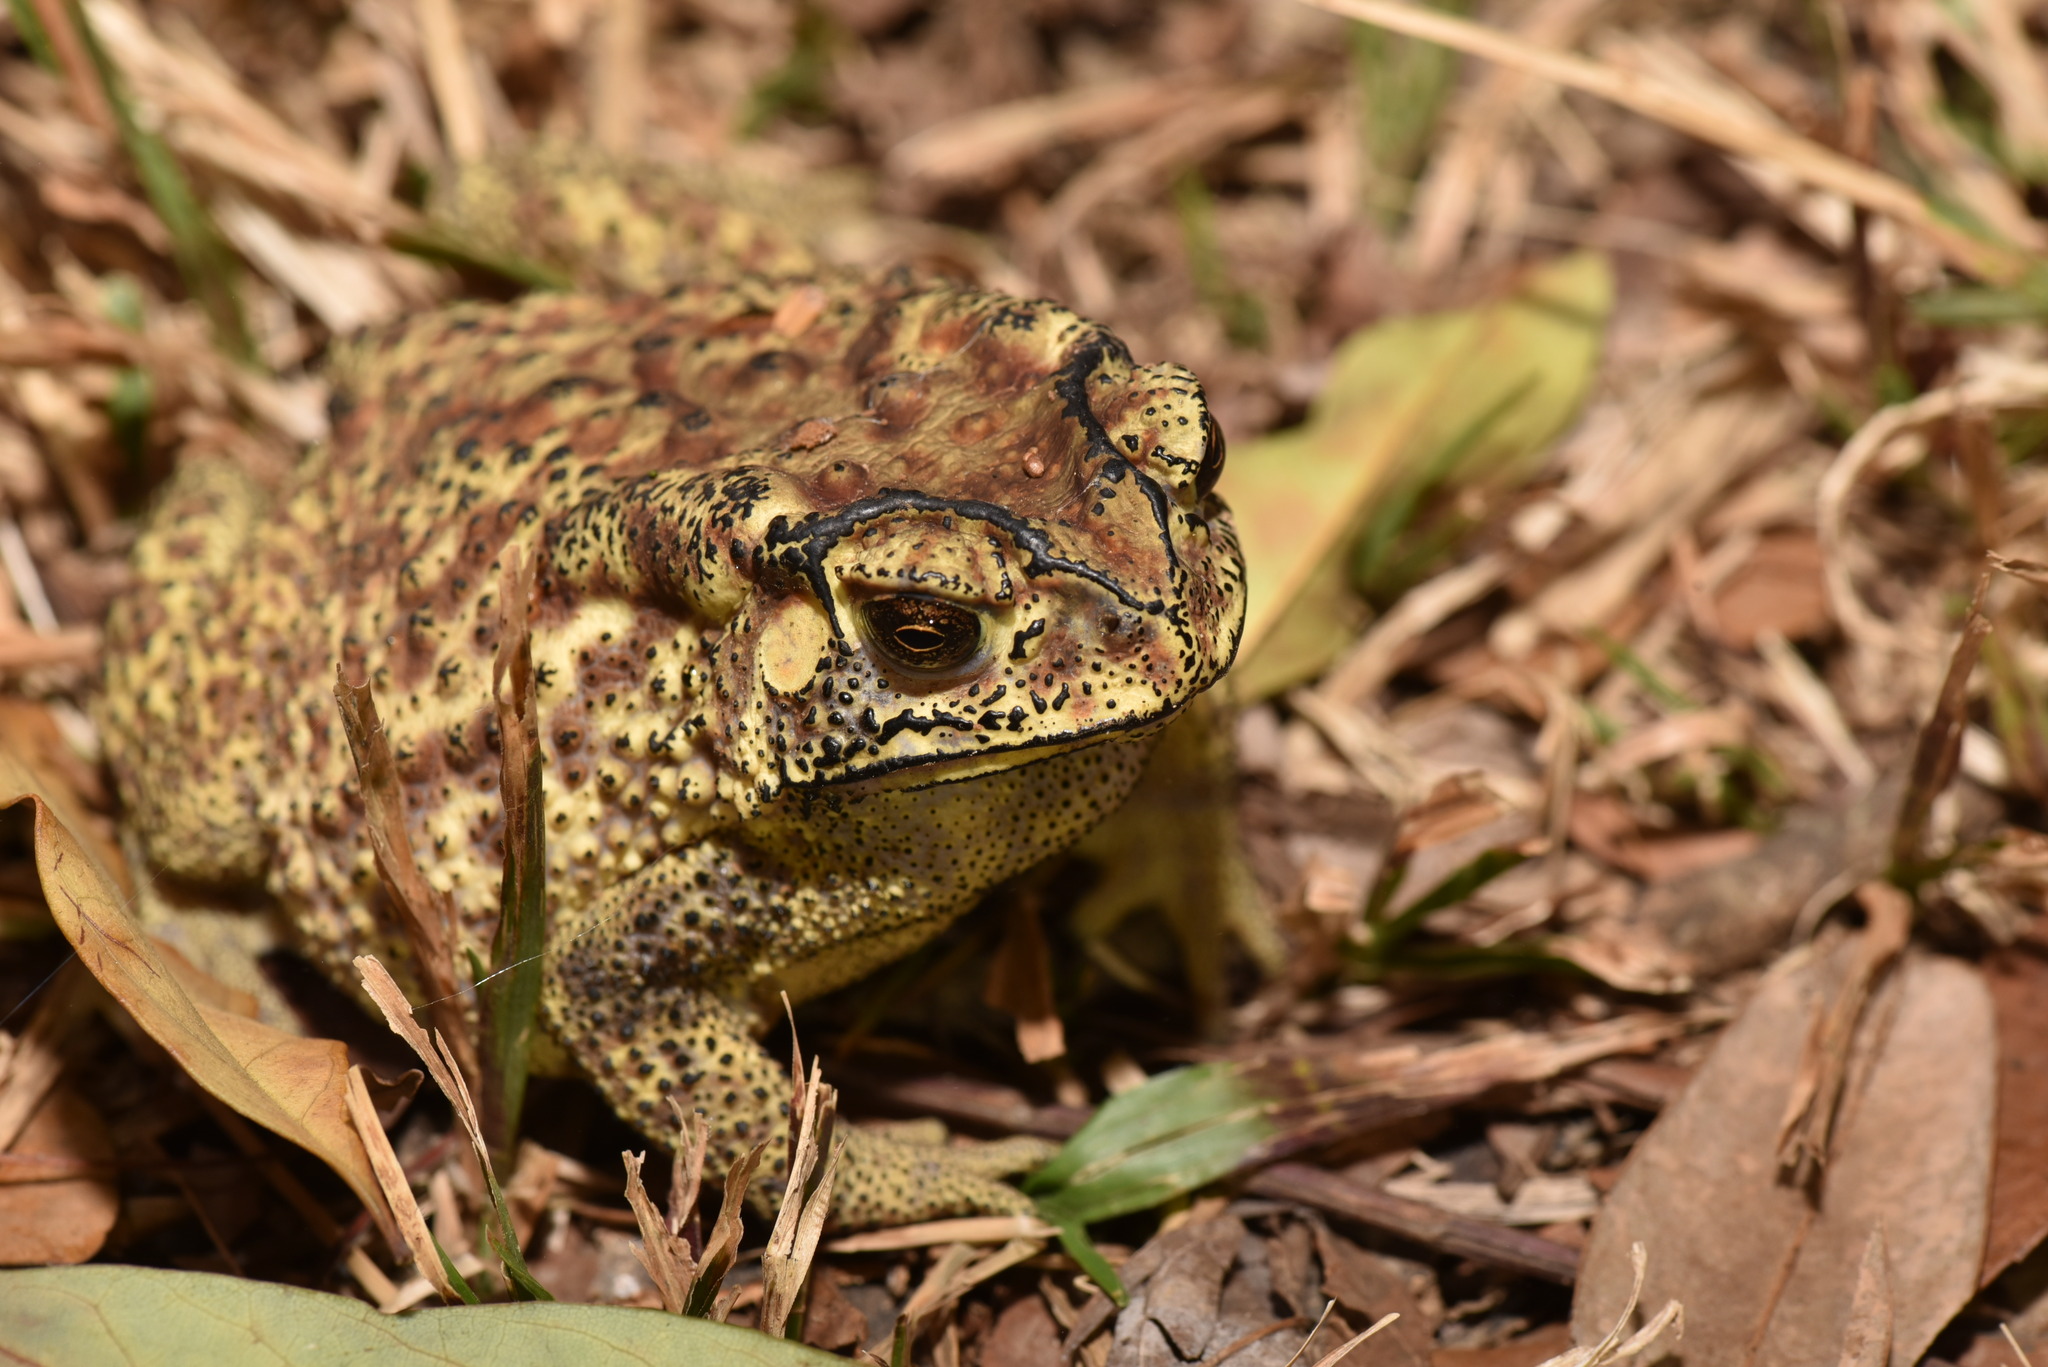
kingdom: Animalia
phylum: Chordata
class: Amphibia
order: Anura
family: Bufonidae
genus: Duttaphrynus
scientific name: Duttaphrynus melanostictus
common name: Common sunda toad
